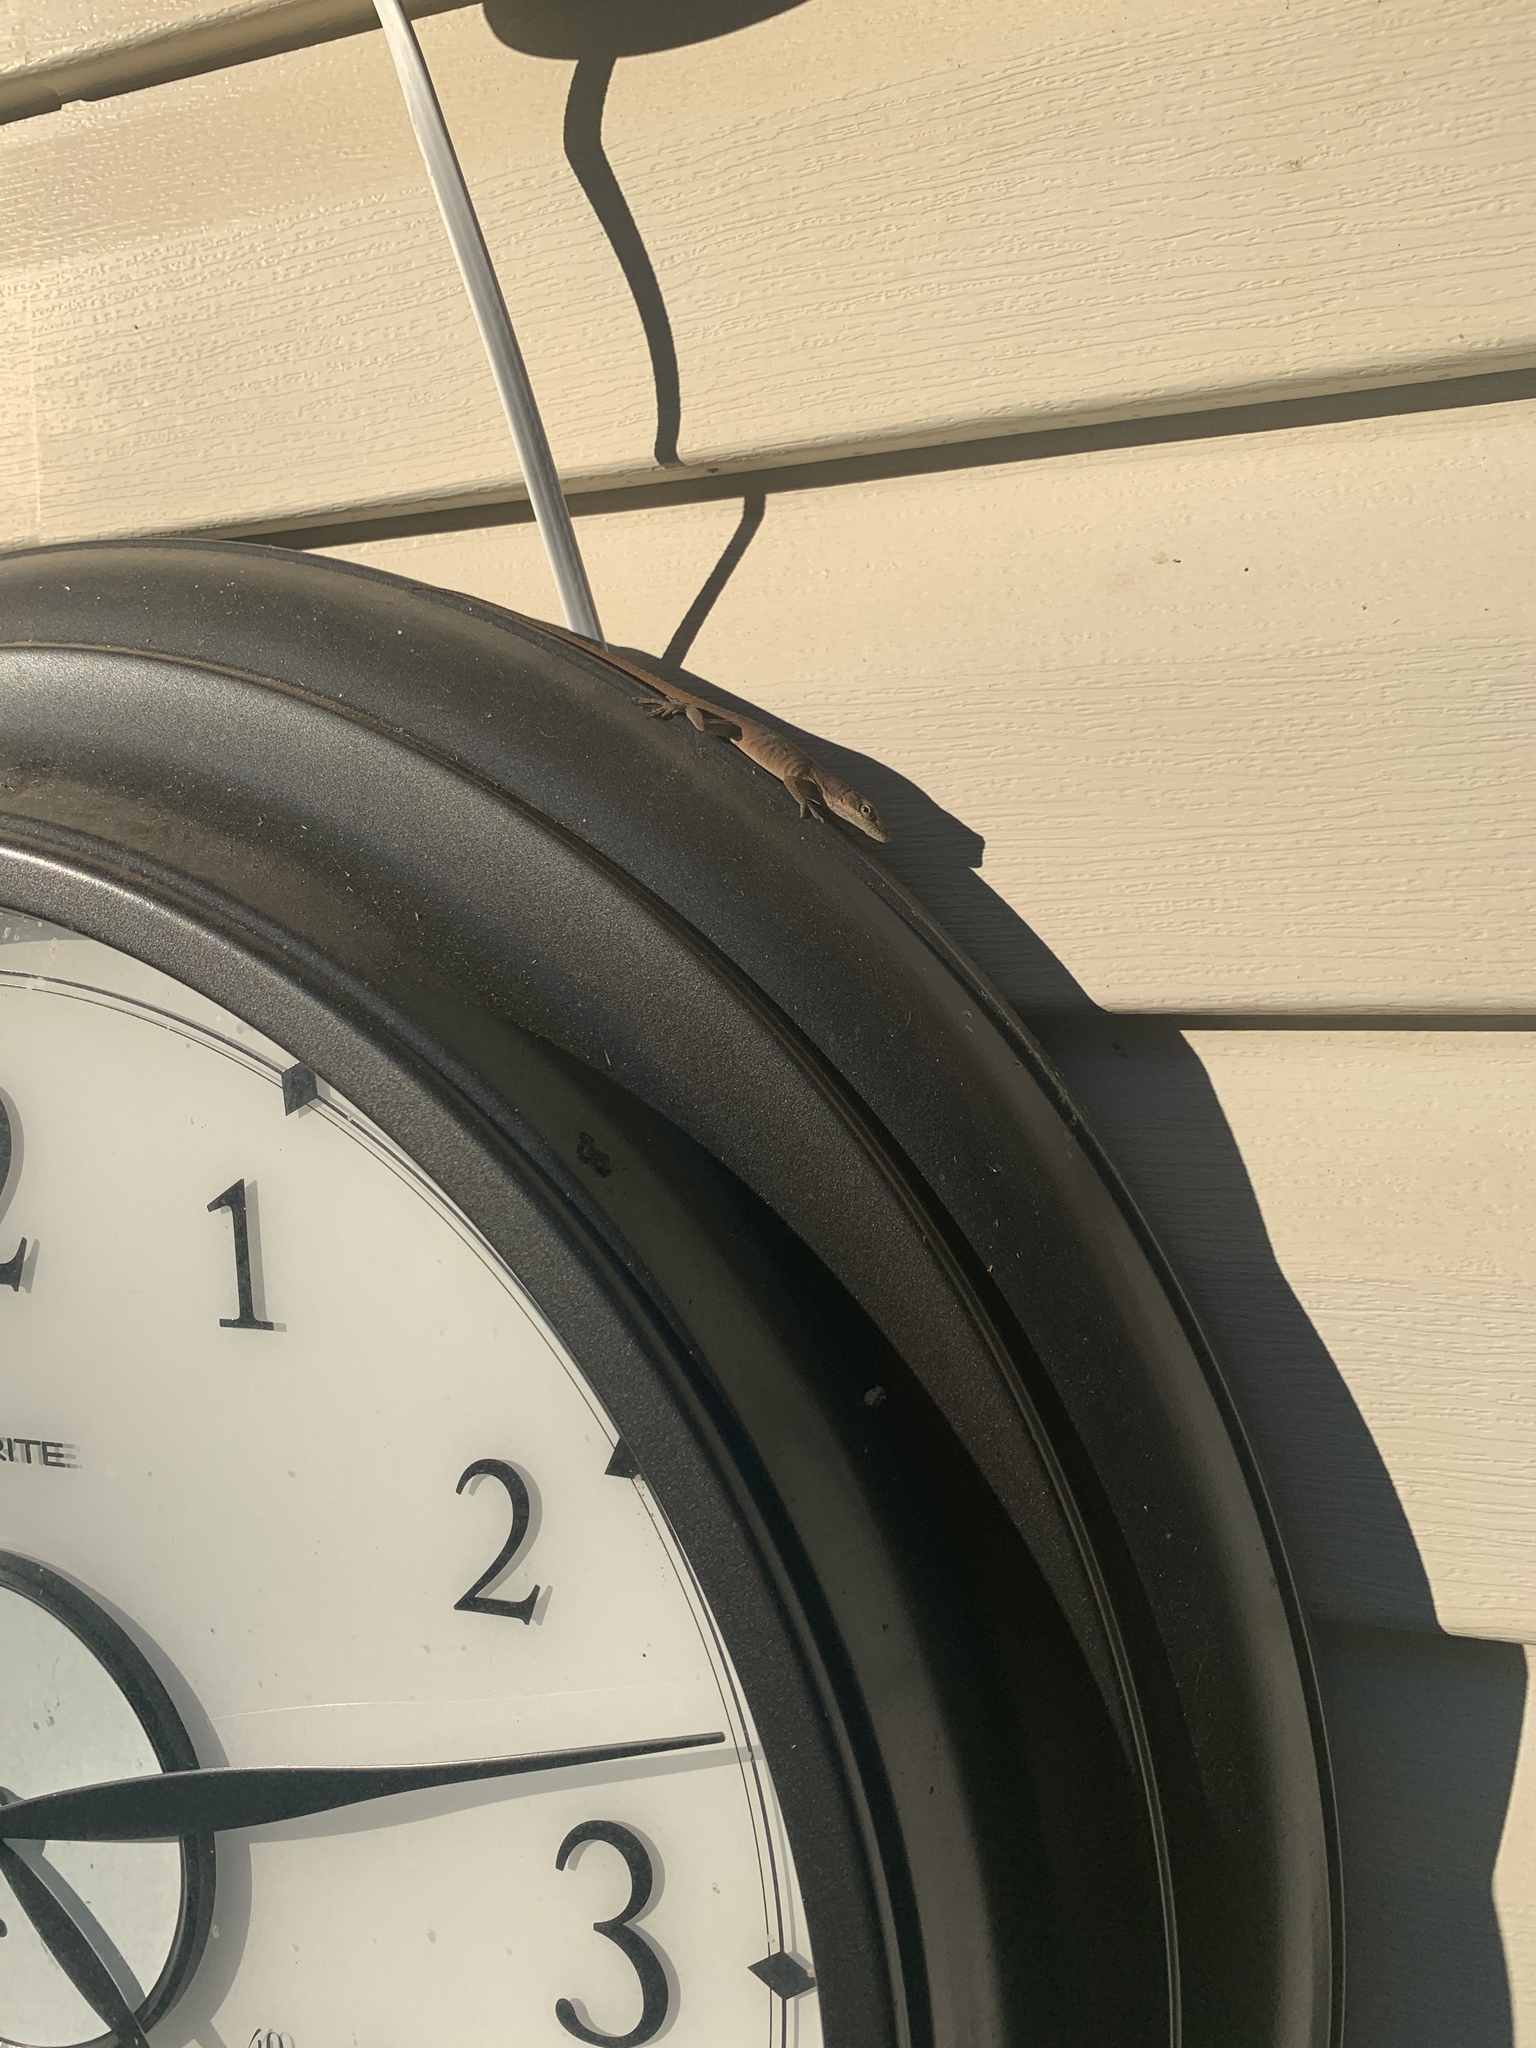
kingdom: Animalia
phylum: Chordata
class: Squamata
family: Dactyloidae
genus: Anolis
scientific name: Anolis carolinensis
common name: Green anole
